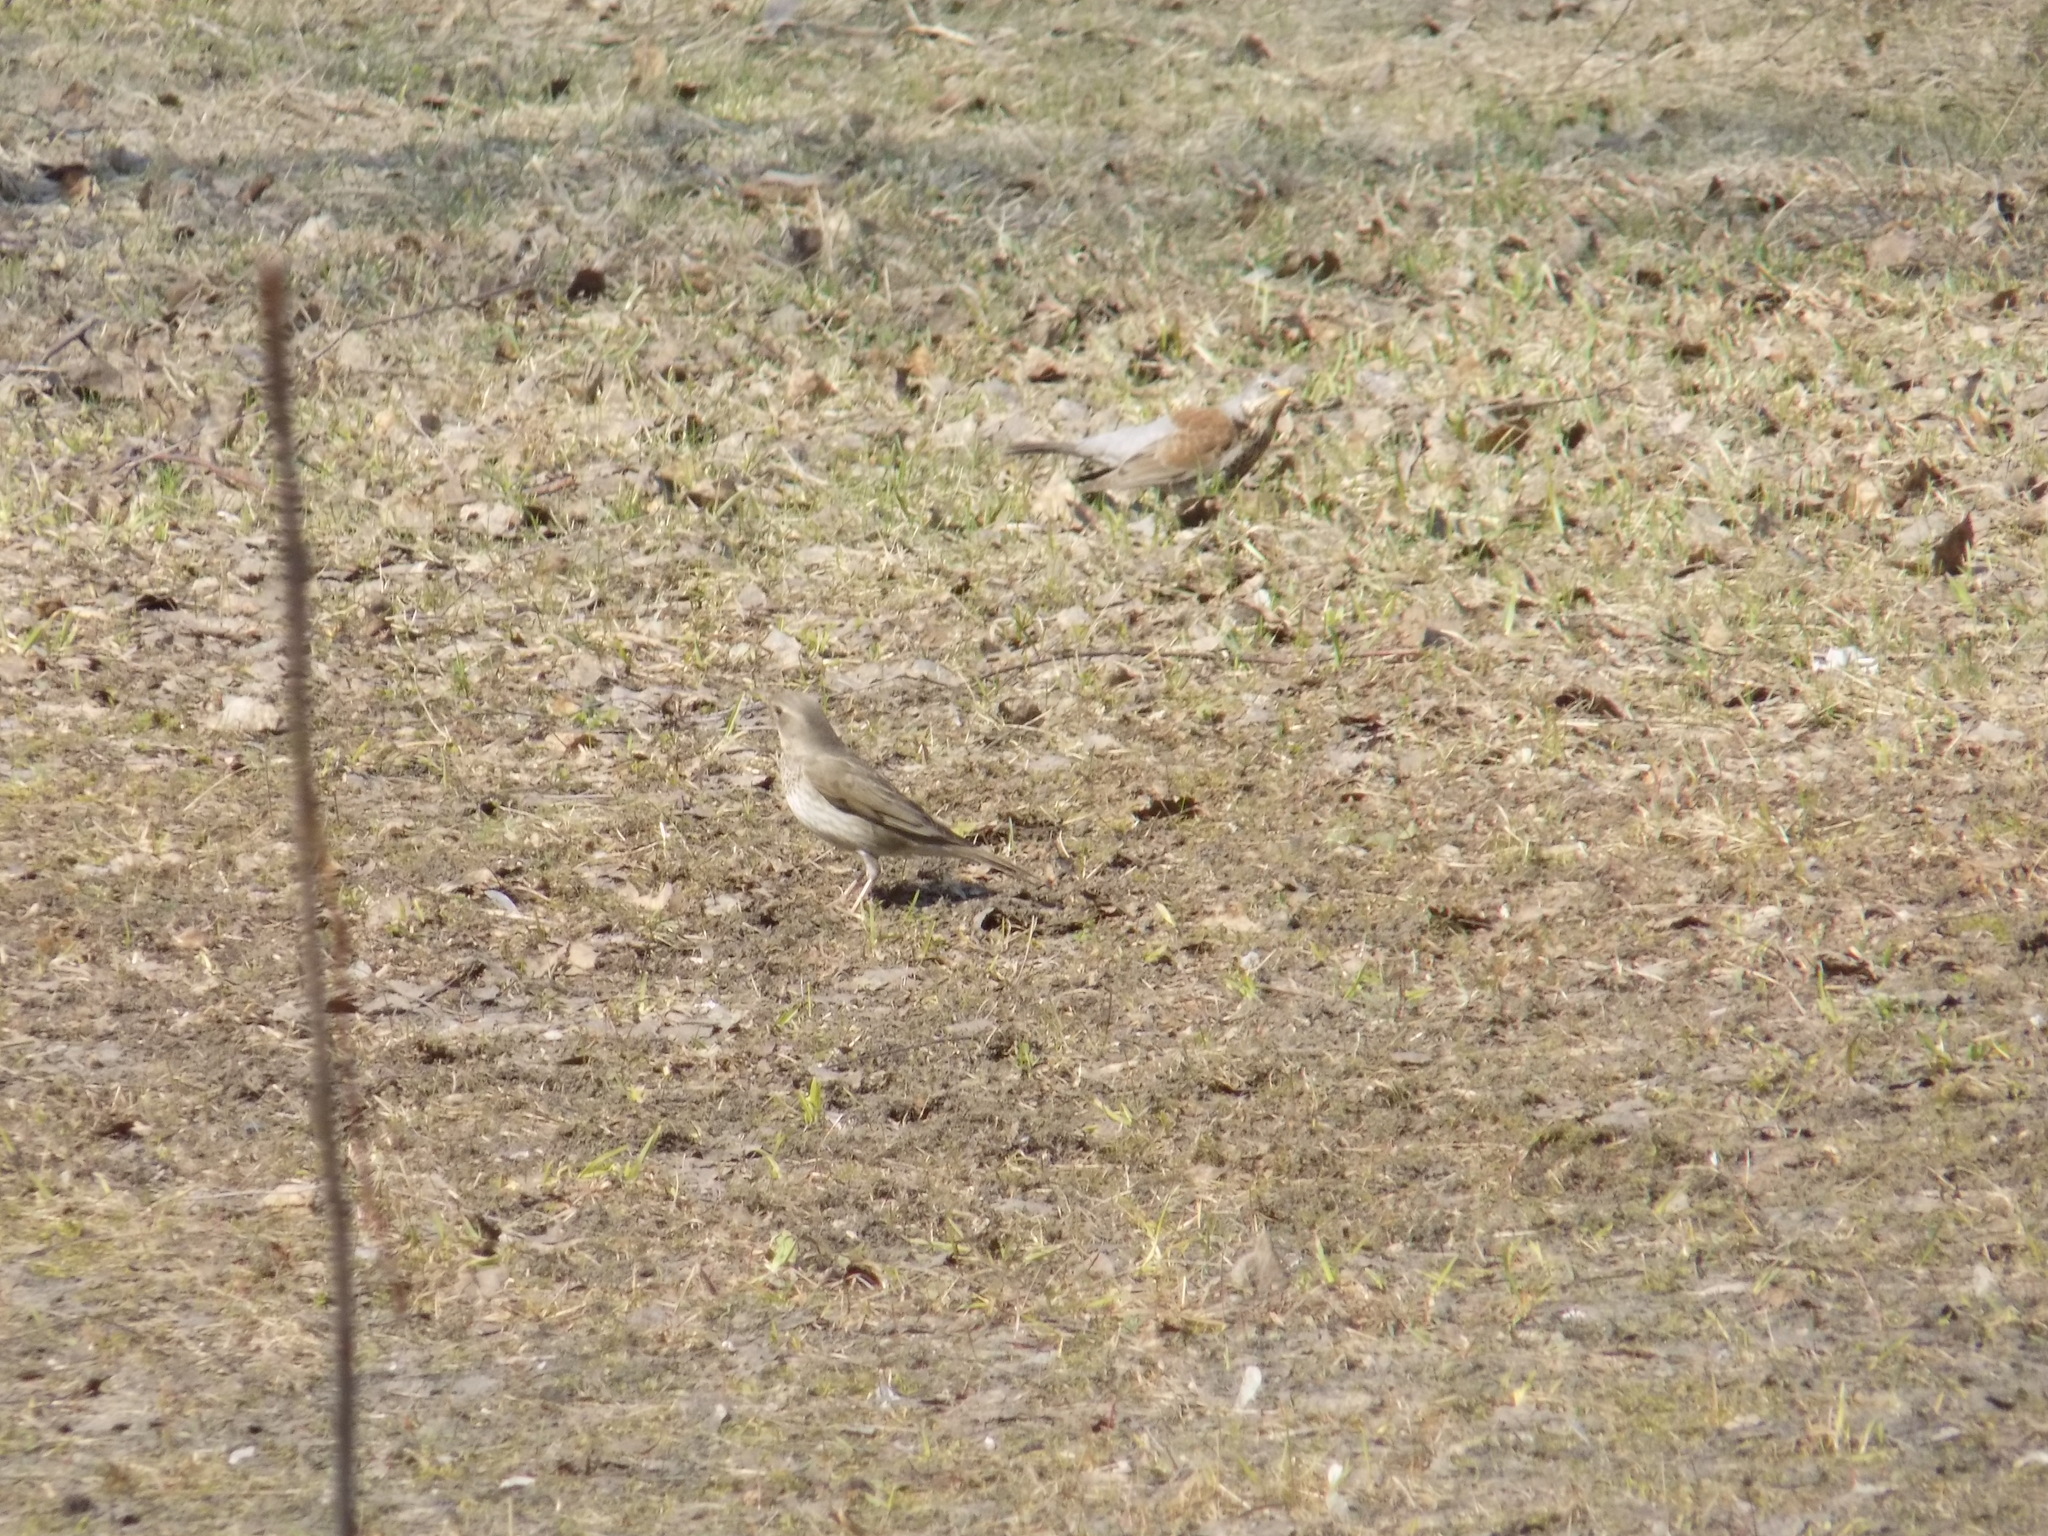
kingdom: Animalia
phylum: Chordata
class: Aves
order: Passeriformes
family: Turdidae
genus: Turdus
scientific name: Turdus atrogularis
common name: Black-throated thrush
